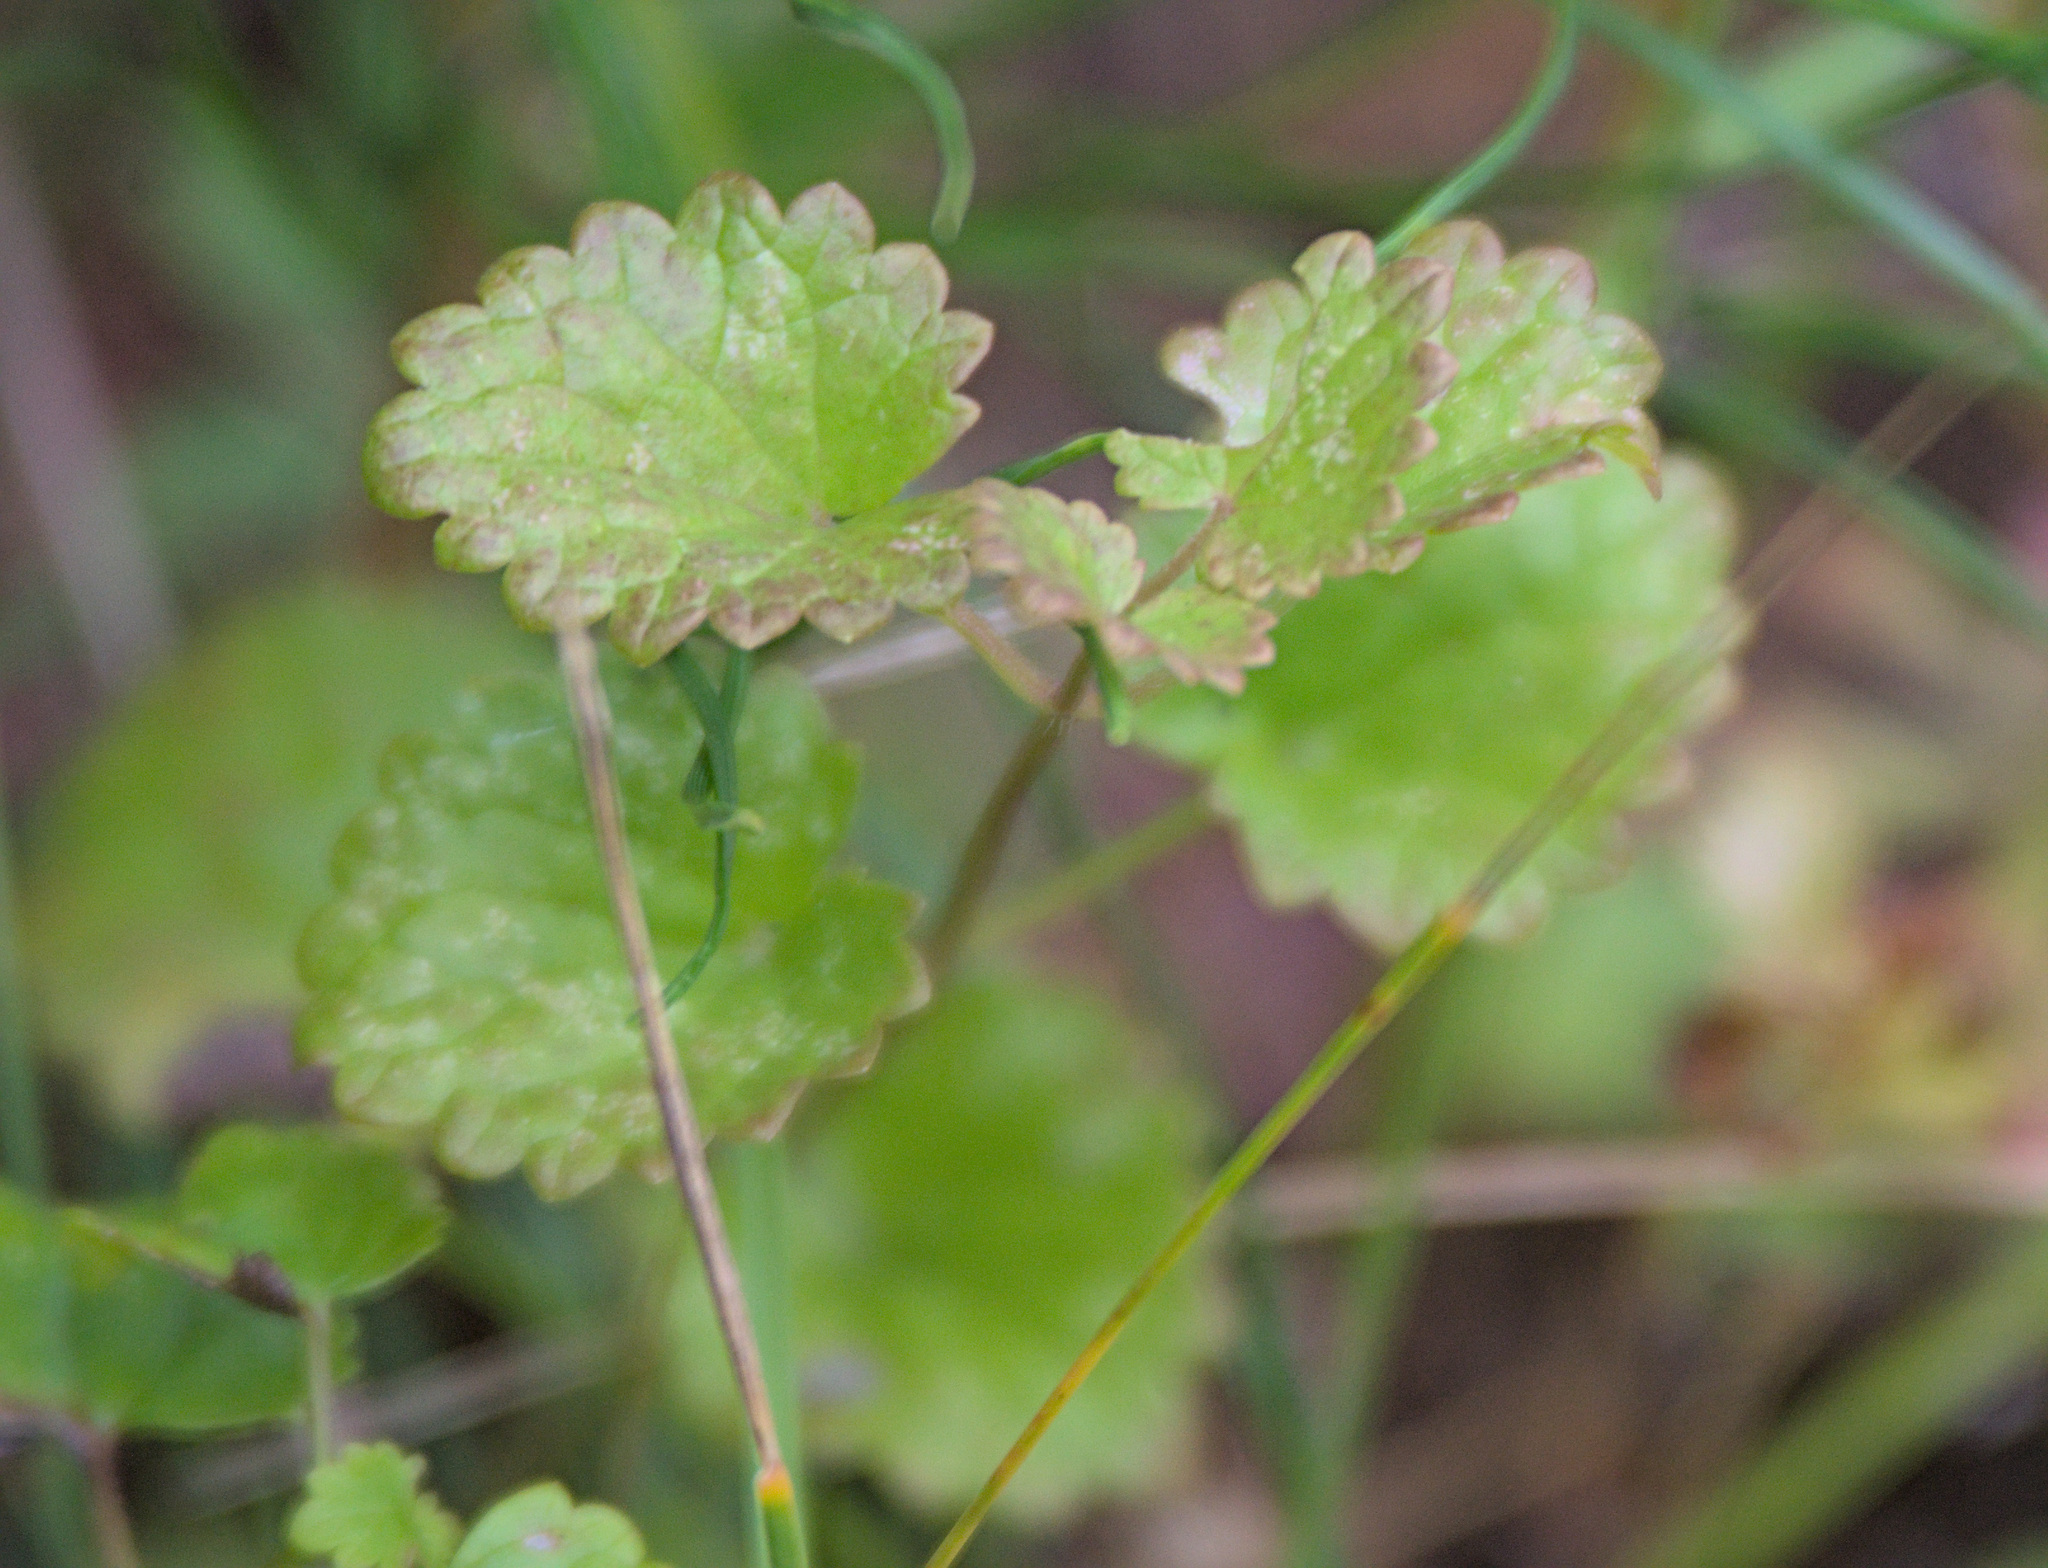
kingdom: Plantae
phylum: Tracheophyta
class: Magnoliopsida
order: Lamiales
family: Lamiaceae
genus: Glechoma
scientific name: Glechoma hederacea
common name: Ground ivy
